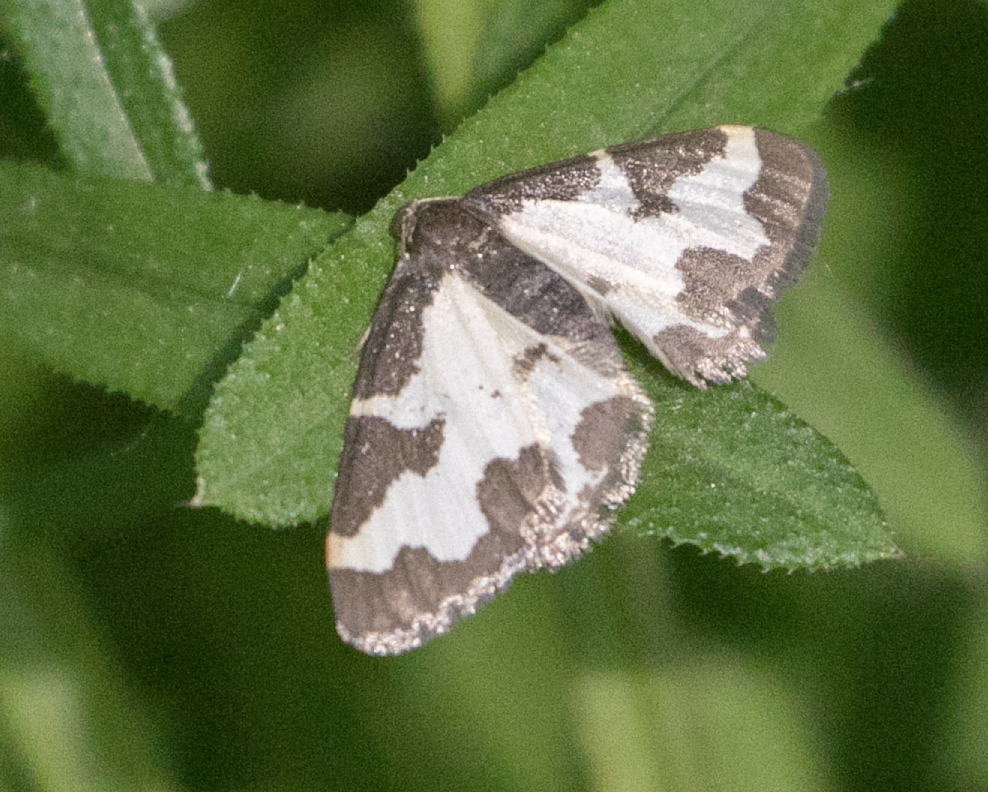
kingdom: Animalia
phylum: Arthropoda
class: Insecta
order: Lepidoptera
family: Geometridae
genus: Lomaspilis
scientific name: Lomaspilis marginata
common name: Clouded border
